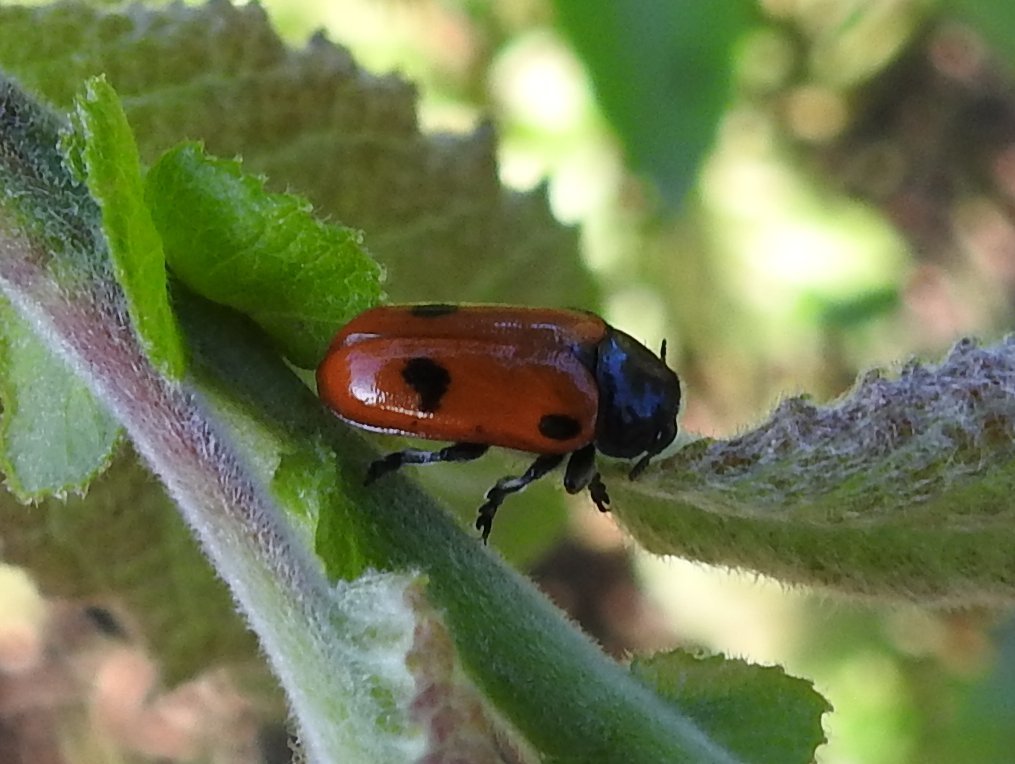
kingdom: Animalia
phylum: Arthropoda
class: Insecta
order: Coleoptera
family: Chrysomelidae
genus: Clytra
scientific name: Clytra quadripunctata
